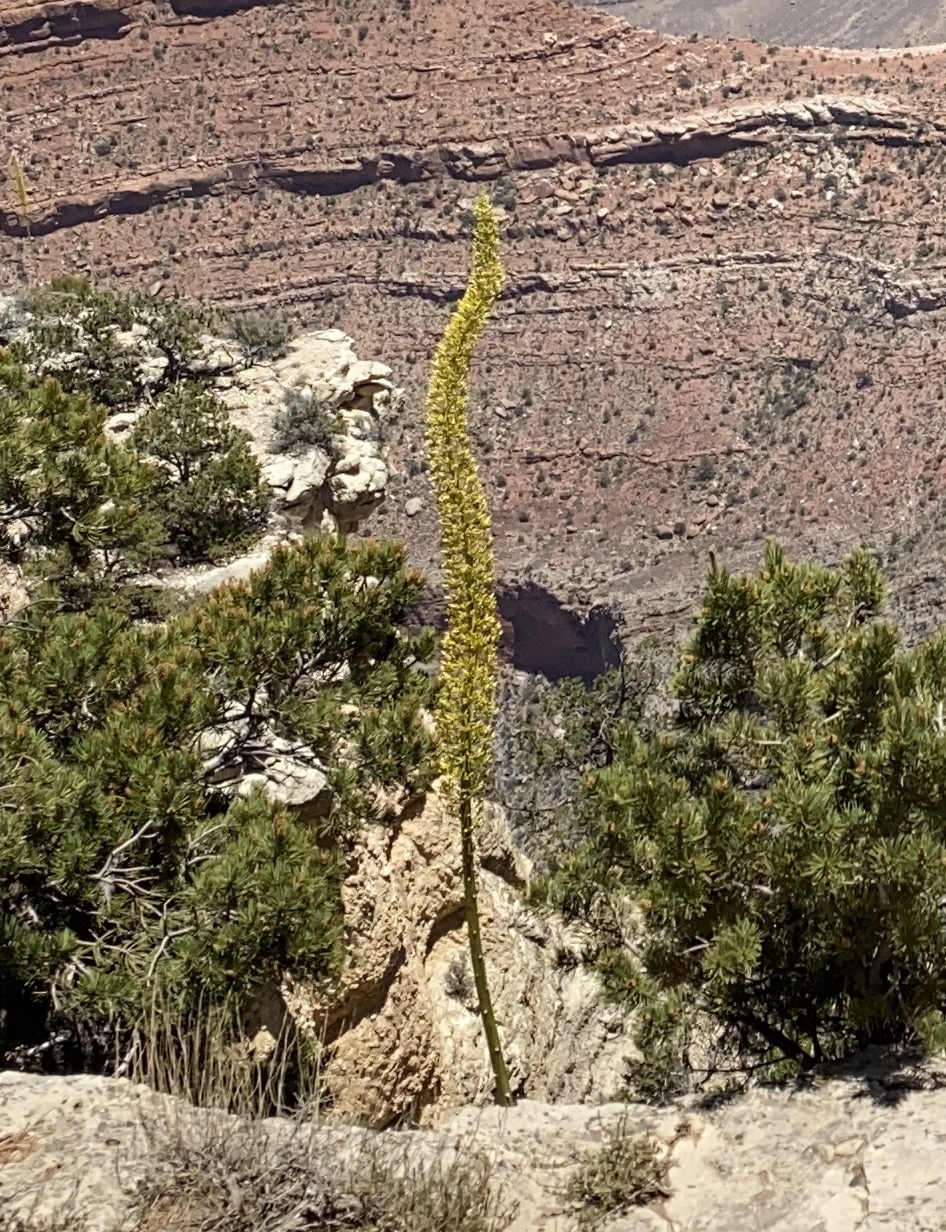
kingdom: Plantae
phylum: Tracheophyta
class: Liliopsida
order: Asparagales
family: Asparagaceae
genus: Agave
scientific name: Agave utahensis
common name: Utah agave
